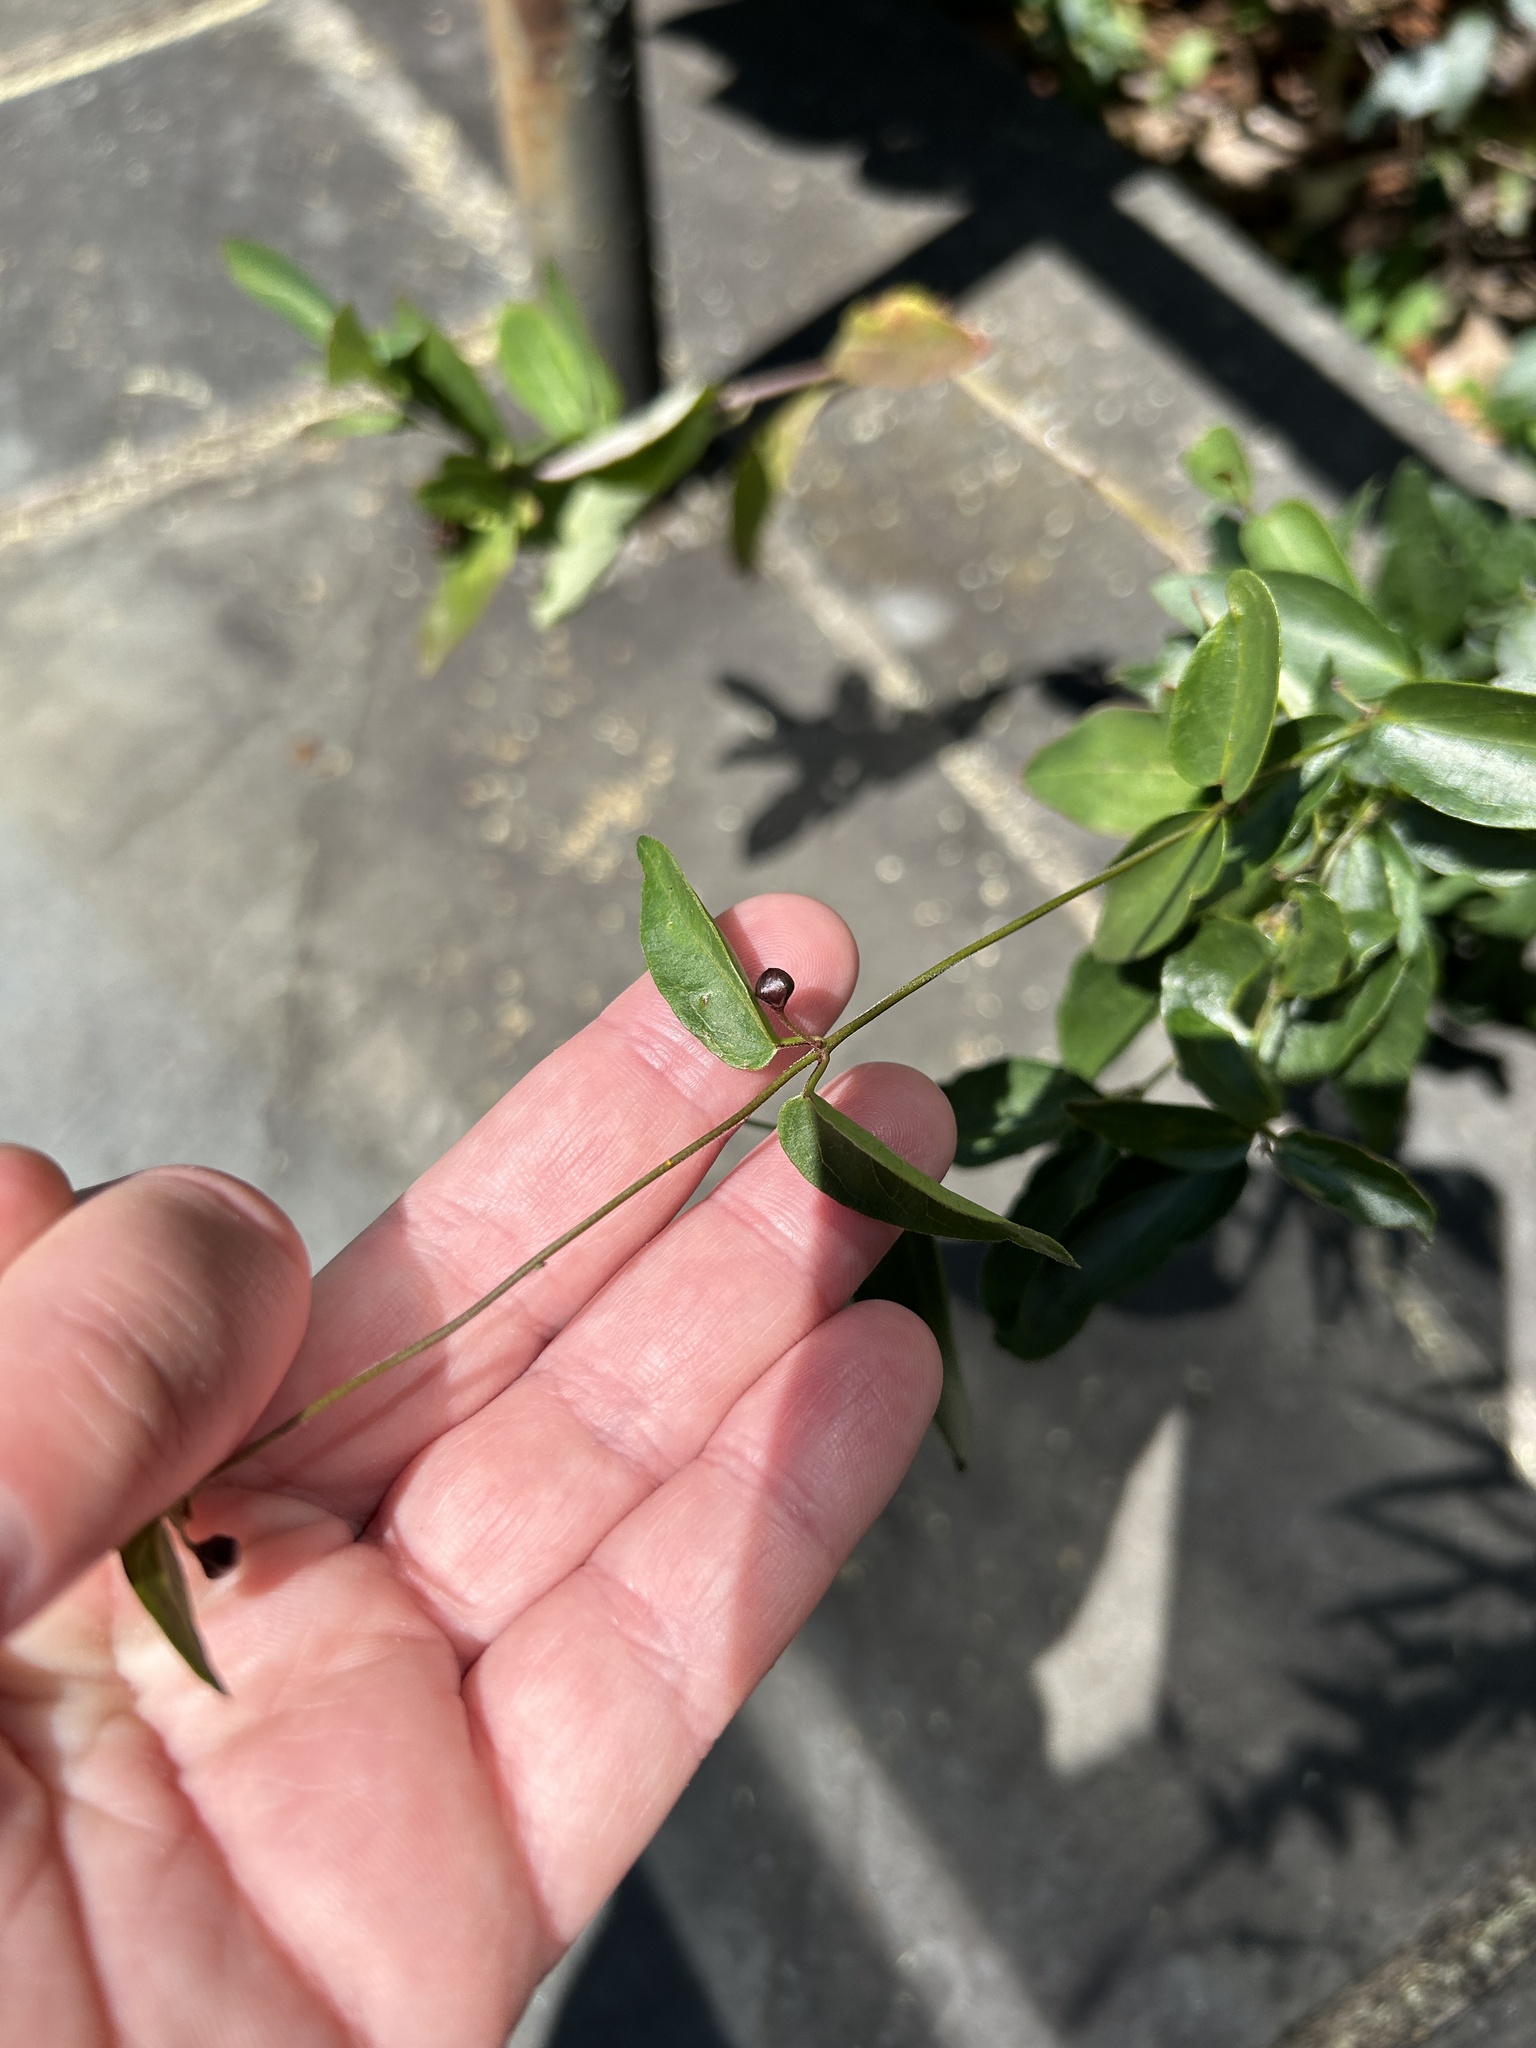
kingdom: Plantae
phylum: Tracheophyta
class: Magnoliopsida
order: Gentianales
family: Apocynaceae
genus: Vincetoxicum
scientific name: Vincetoxicum nigrum
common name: Black swallow-wort
